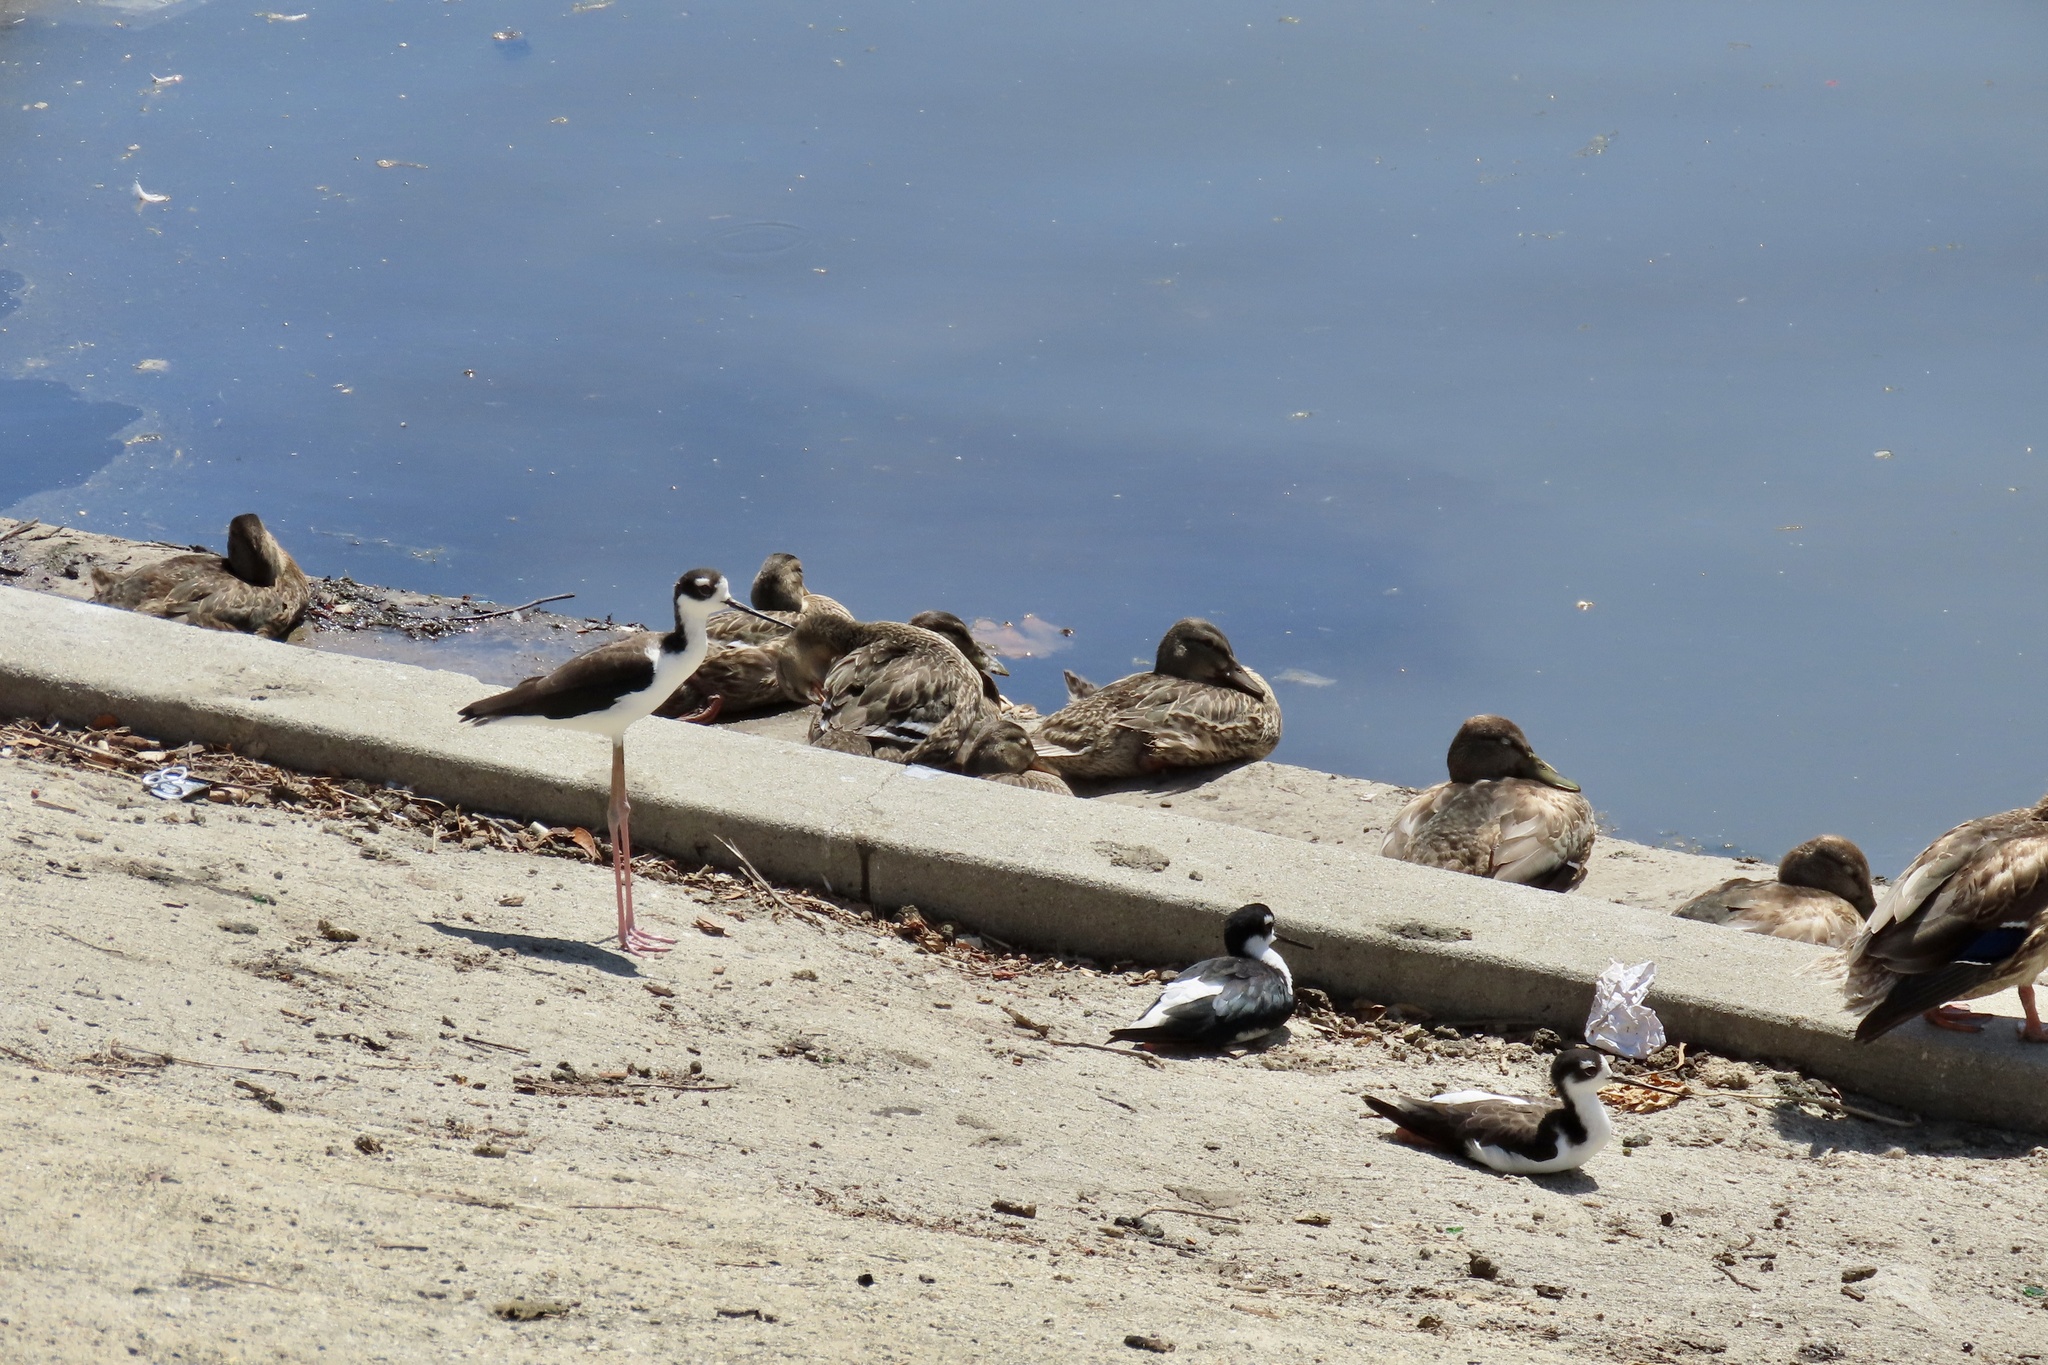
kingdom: Animalia
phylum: Chordata
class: Aves
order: Anseriformes
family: Anatidae
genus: Anas
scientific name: Anas platyrhynchos
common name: Mallard
